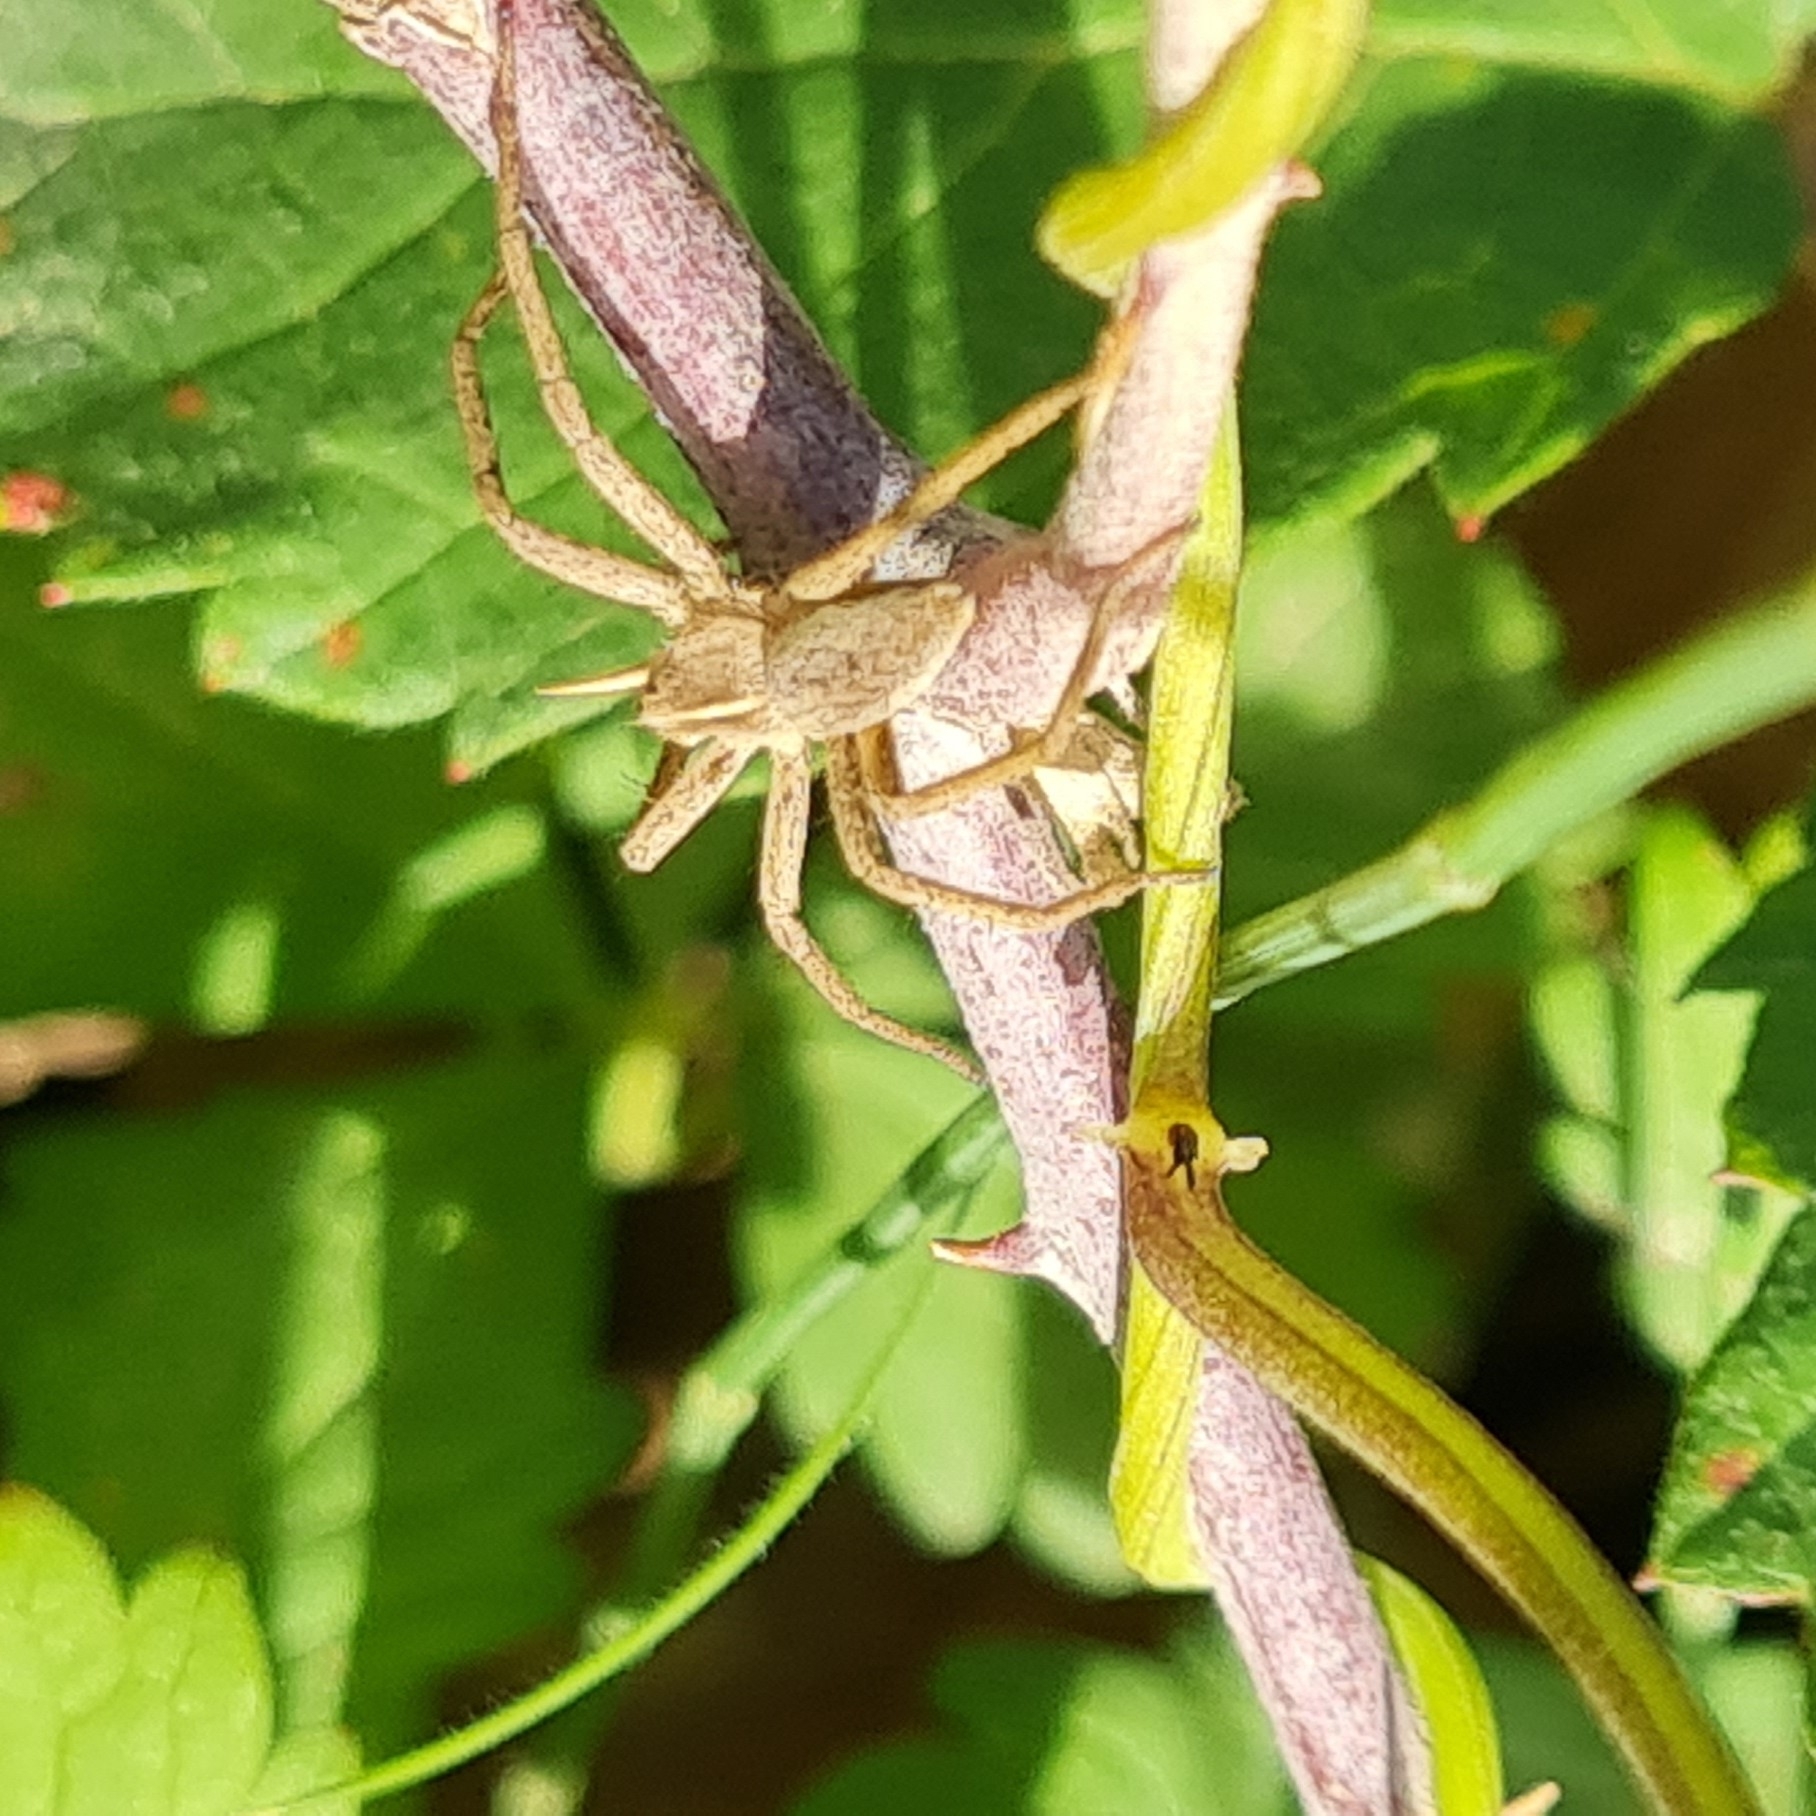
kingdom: Animalia
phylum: Arthropoda
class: Arachnida
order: Araneae
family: Pisauridae
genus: Pisaura
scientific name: Pisaura mirabilis
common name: Tent spider
